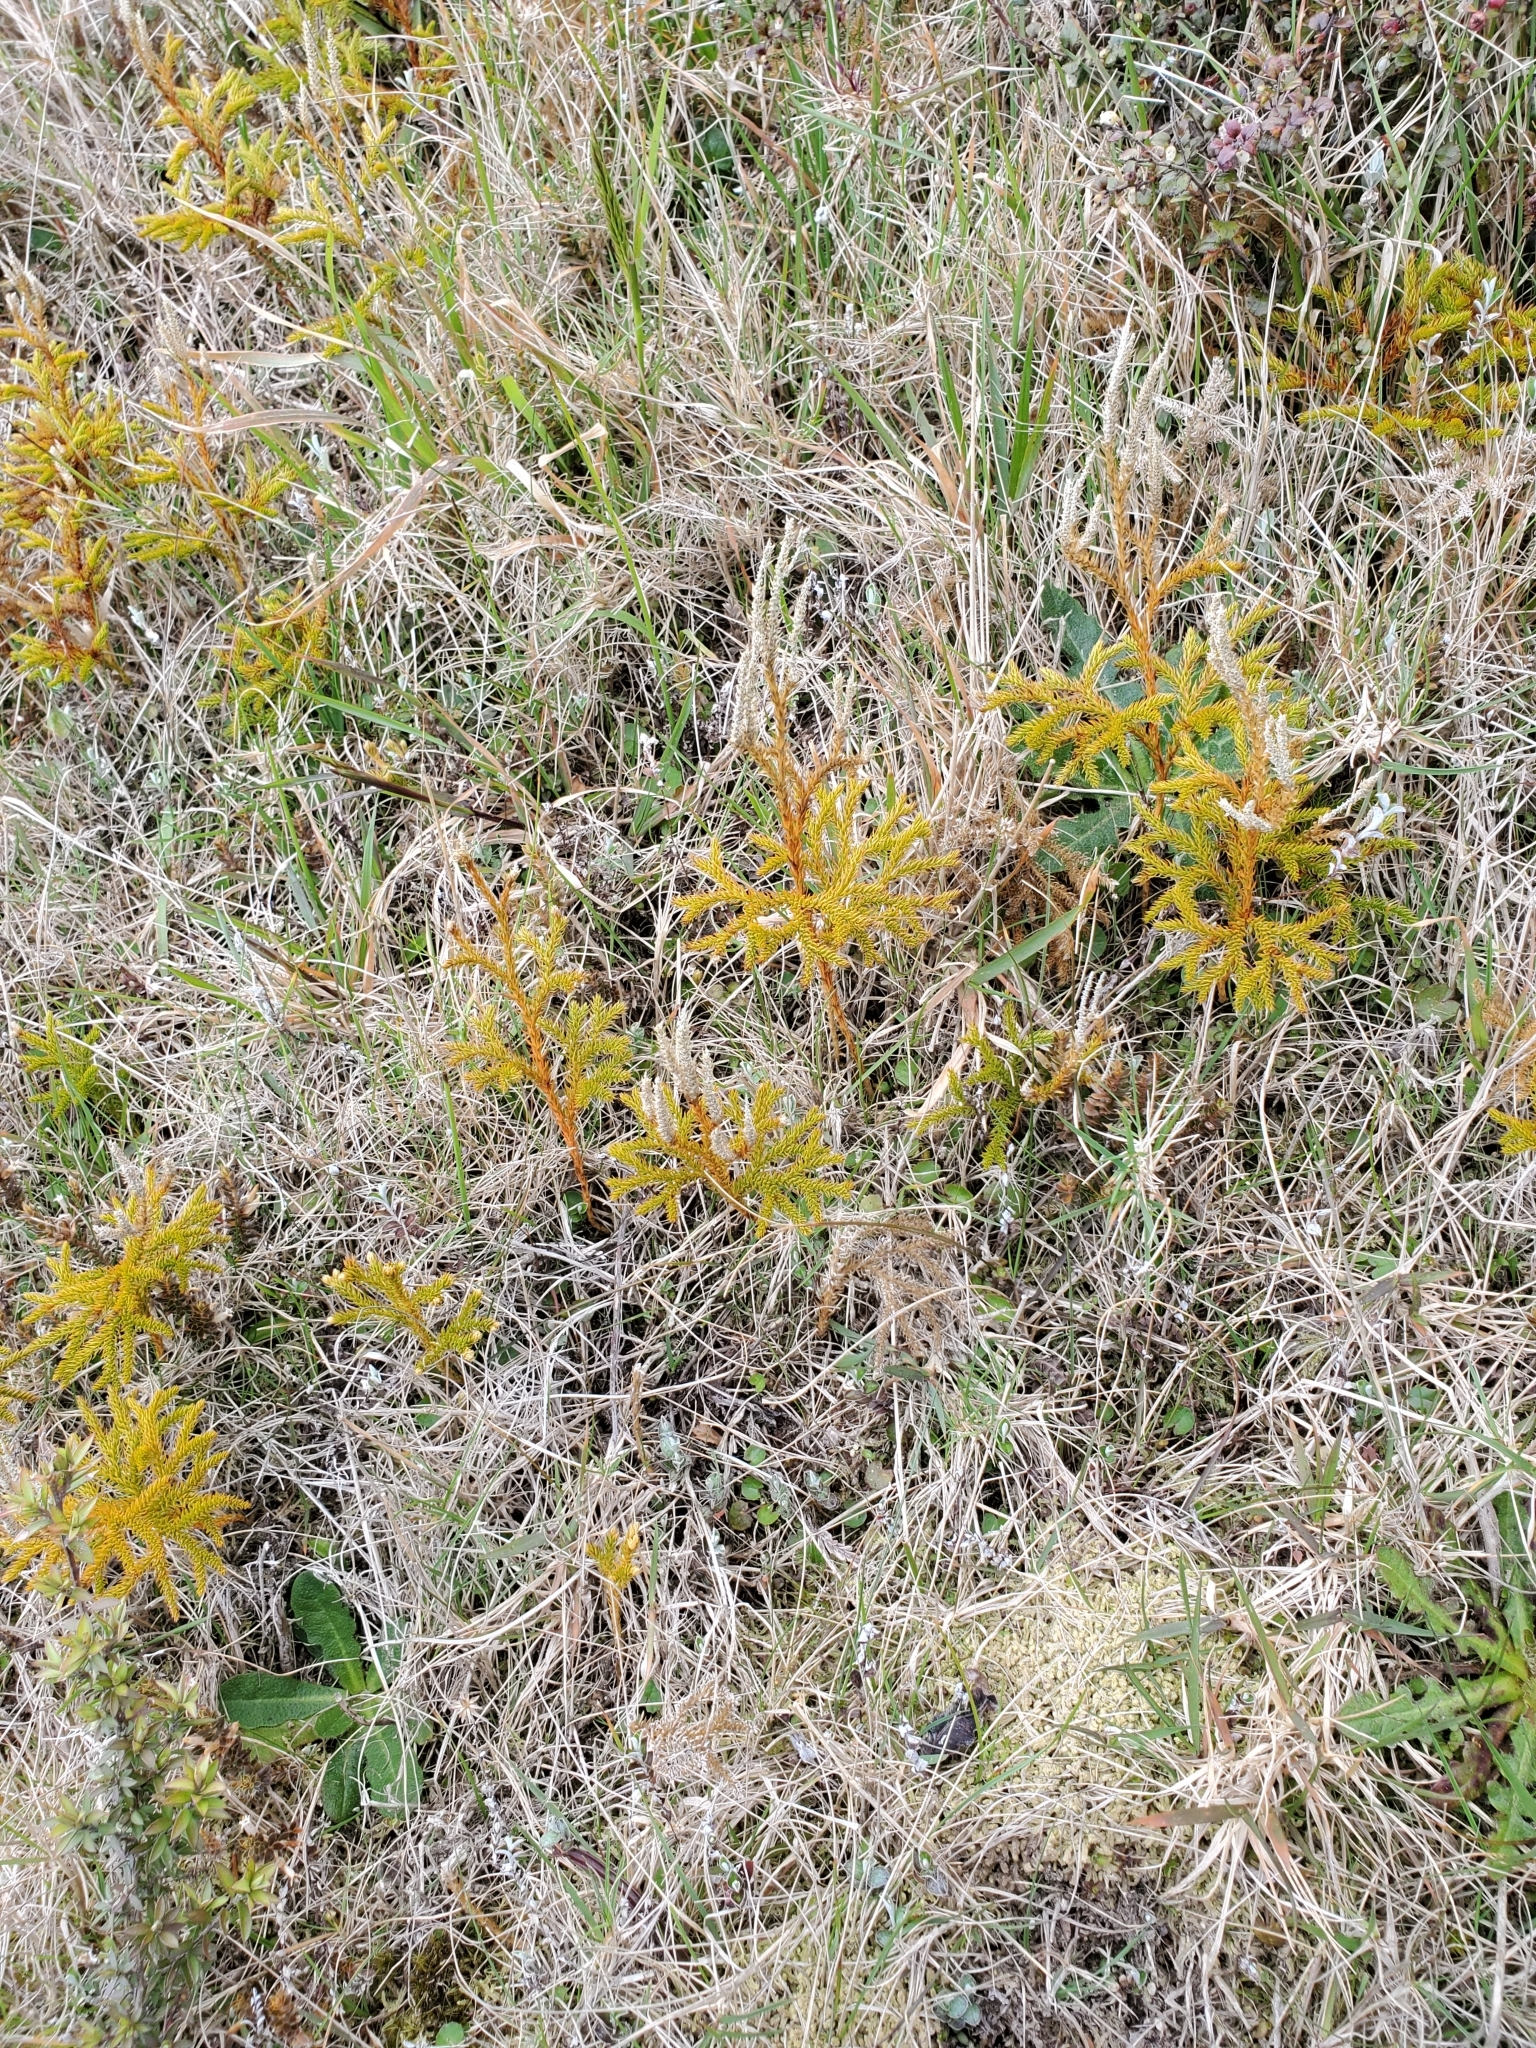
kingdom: Plantae
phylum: Tracheophyta
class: Lycopodiopsida
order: Lycopodiales
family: Lycopodiaceae
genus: Austrolycopodium
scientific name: Austrolycopodium fastigiatum
